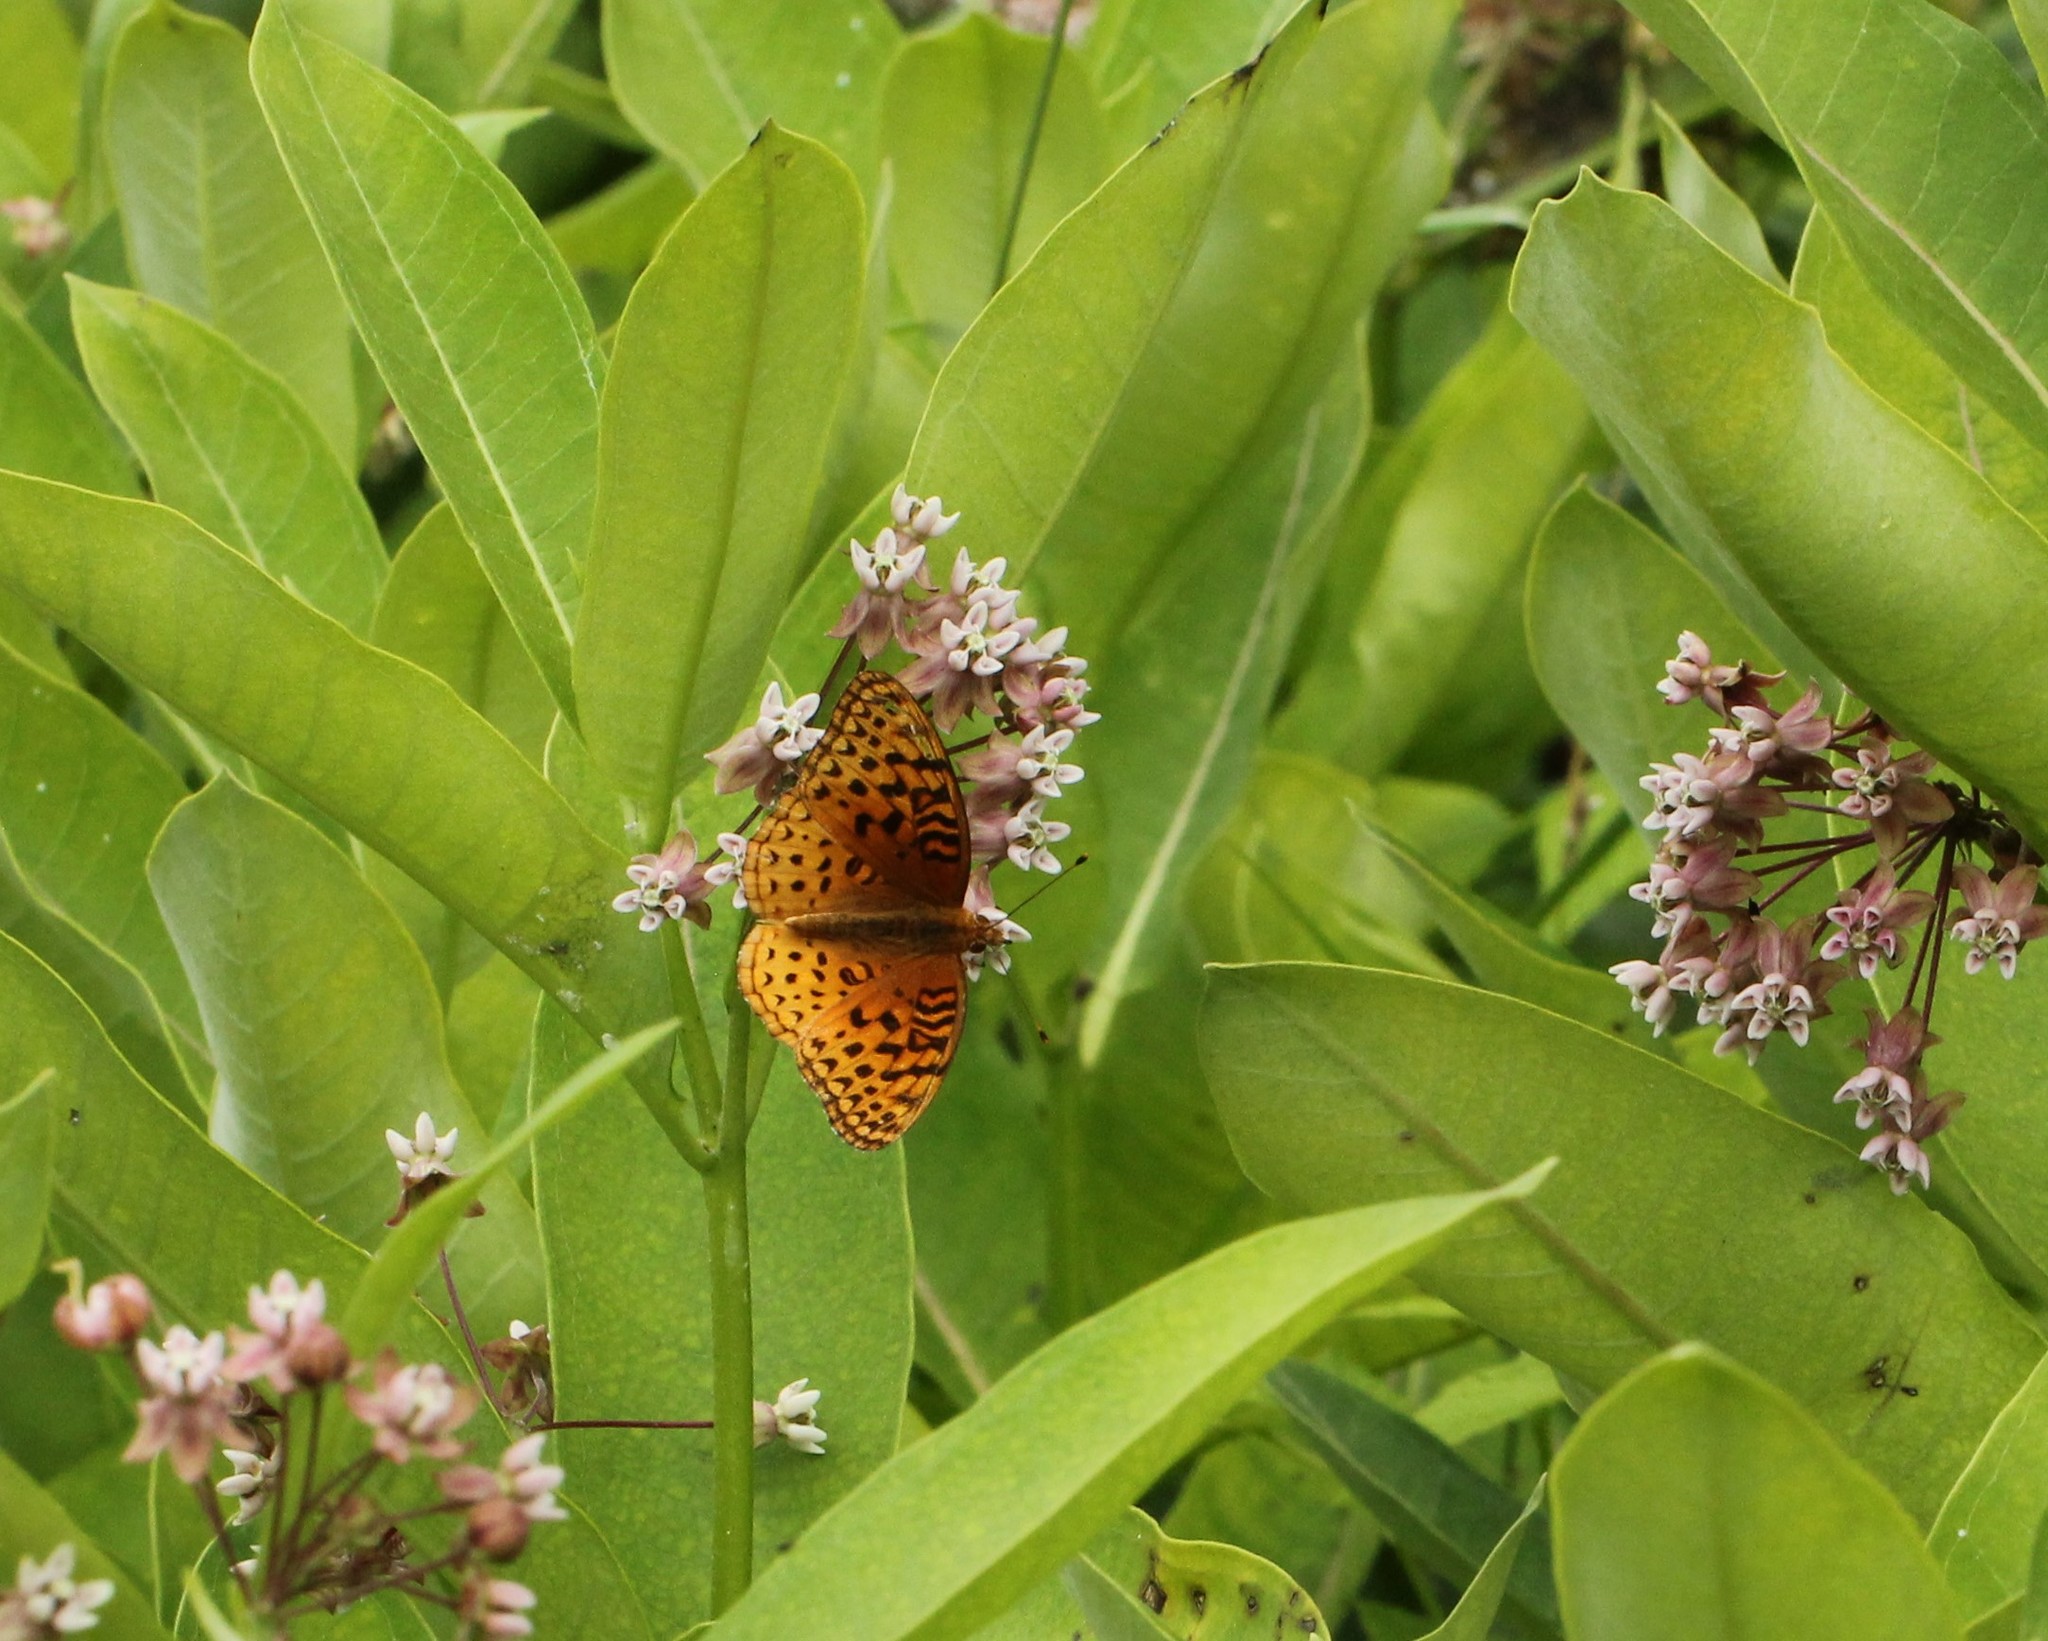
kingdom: Animalia
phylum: Arthropoda
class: Insecta
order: Lepidoptera
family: Nymphalidae
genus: Speyeria
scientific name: Speyeria aphrodite
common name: Aphrodite friitllary
